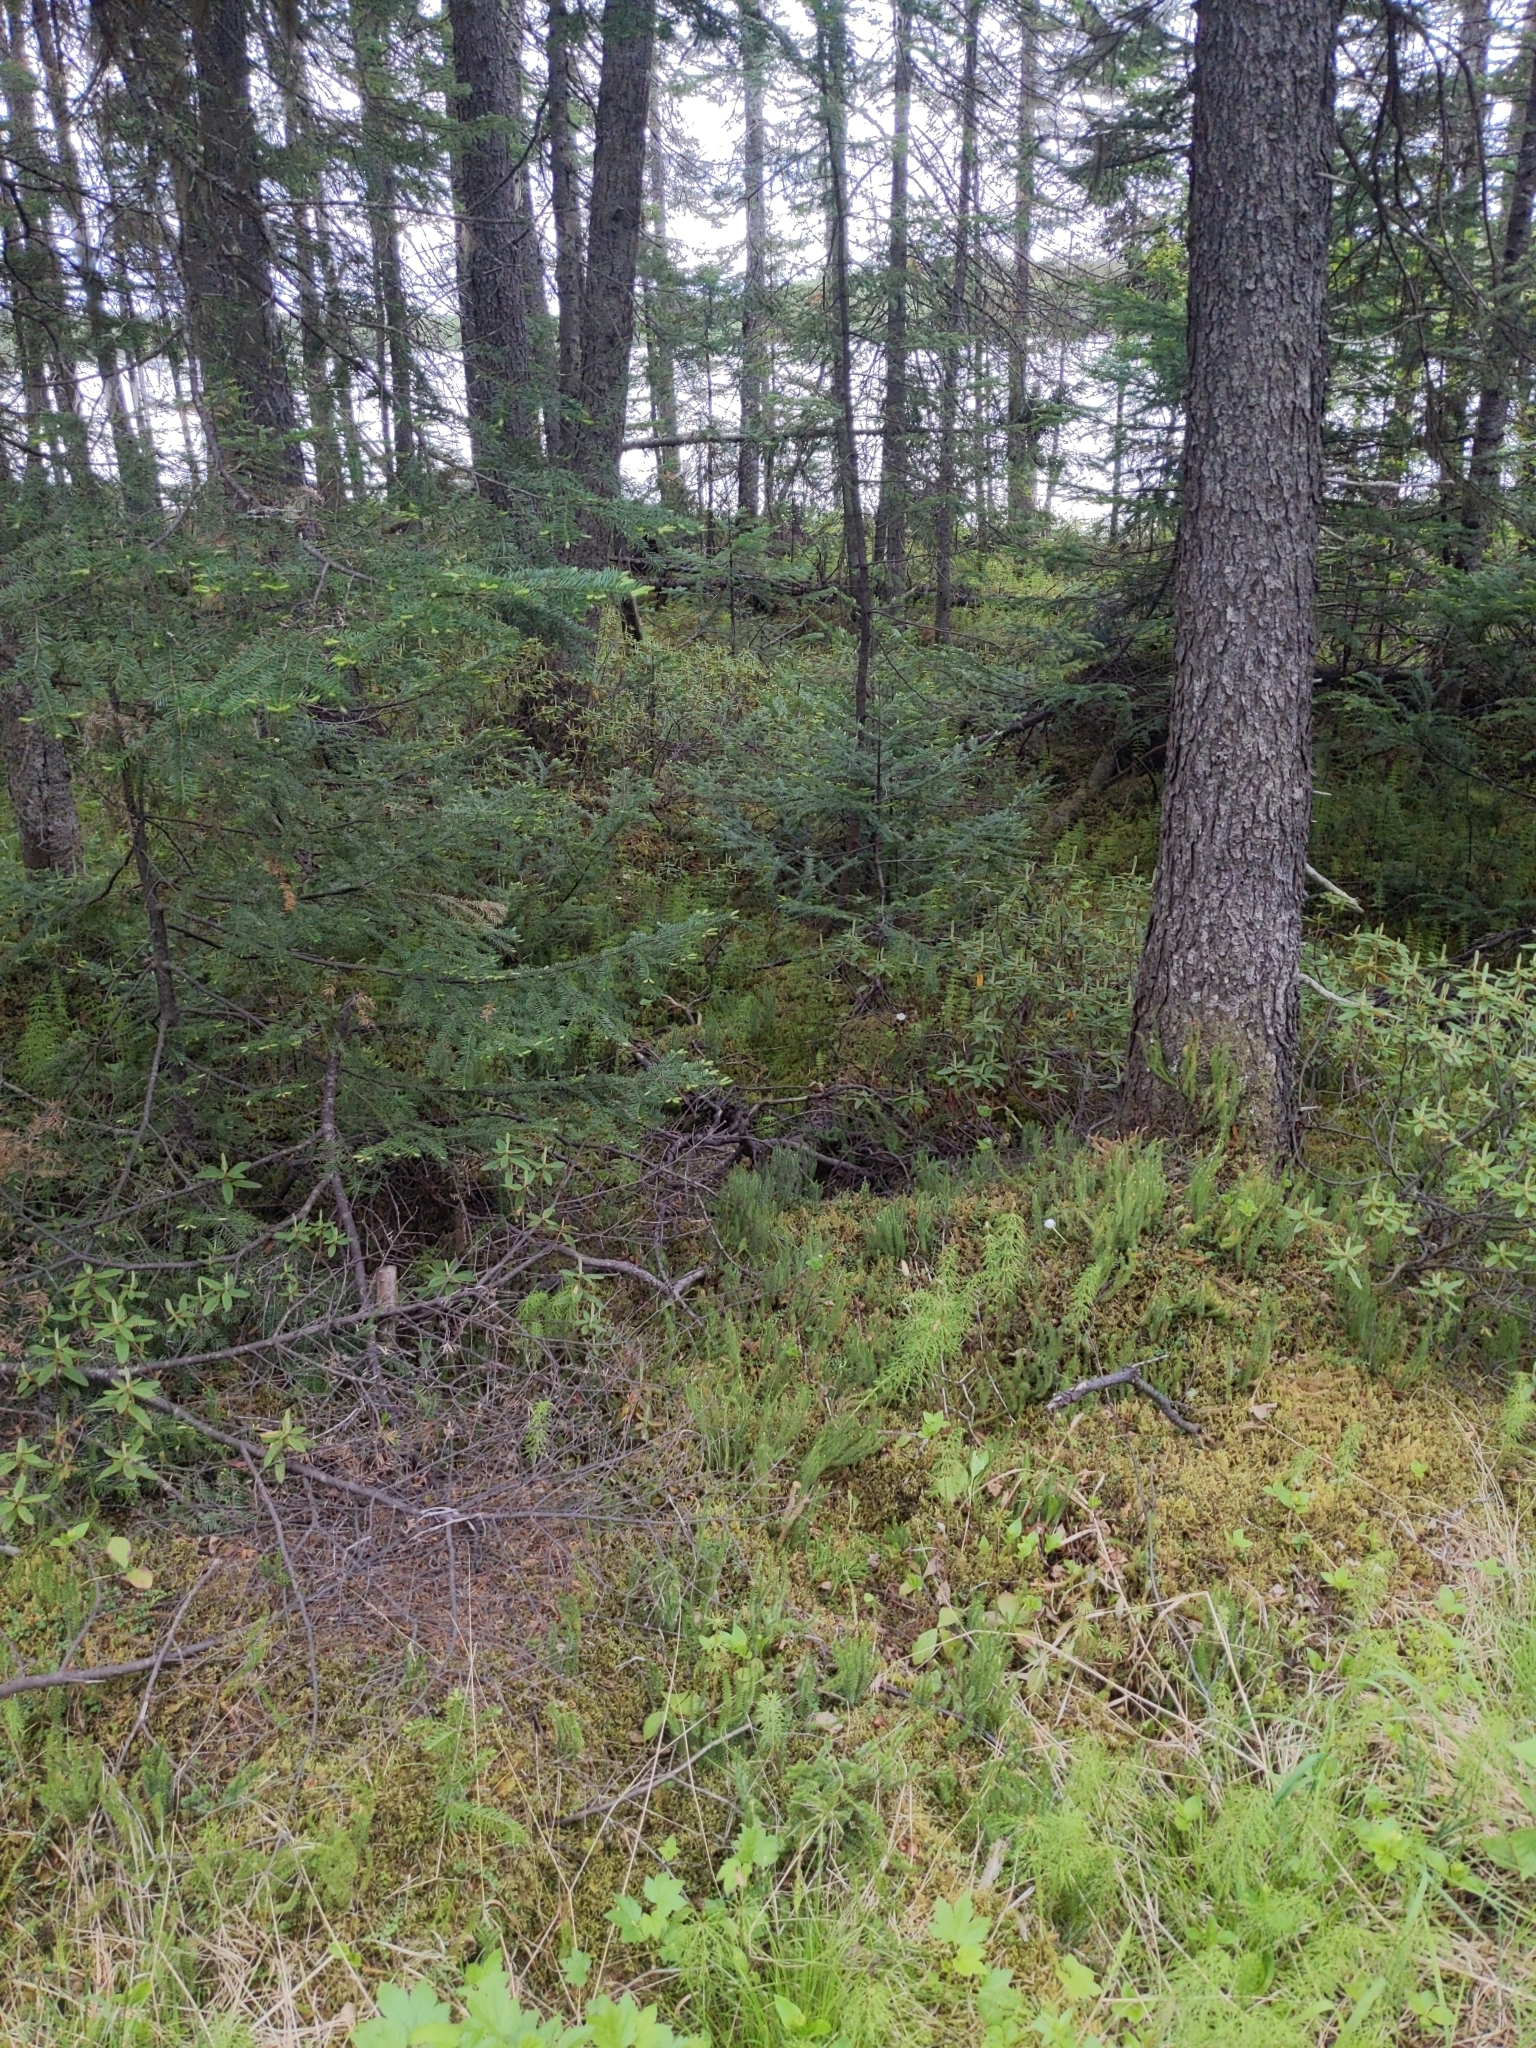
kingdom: Plantae
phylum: Tracheophyta
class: Magnoliopsida
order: Rosales
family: Rosaceae
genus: Rubus
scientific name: Rubus chamaemorus
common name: Cloudberry
